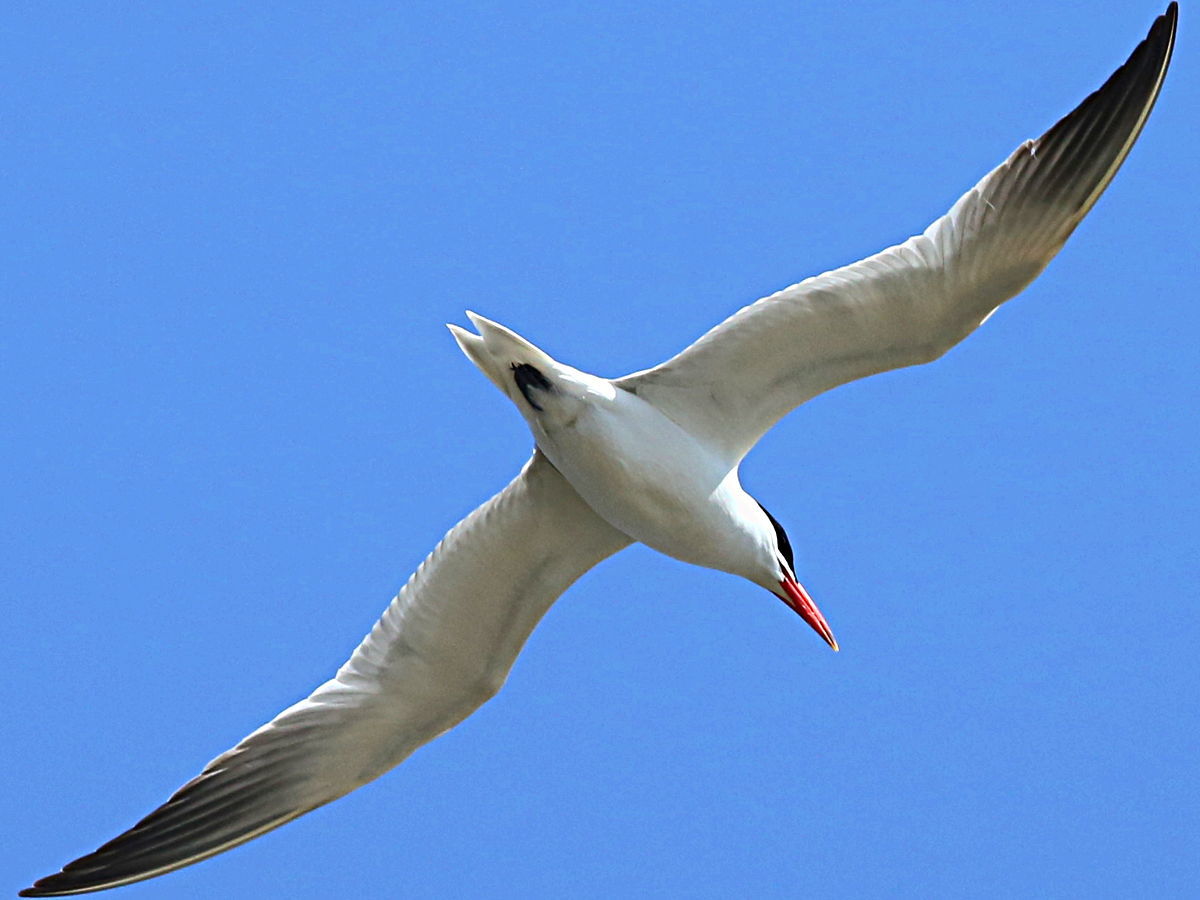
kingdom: Animalia
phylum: Chordata
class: Aves
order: Charadriiformes
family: Laridae
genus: Hydroprogne
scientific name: Hydroprogne caspia
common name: Caspian tern
